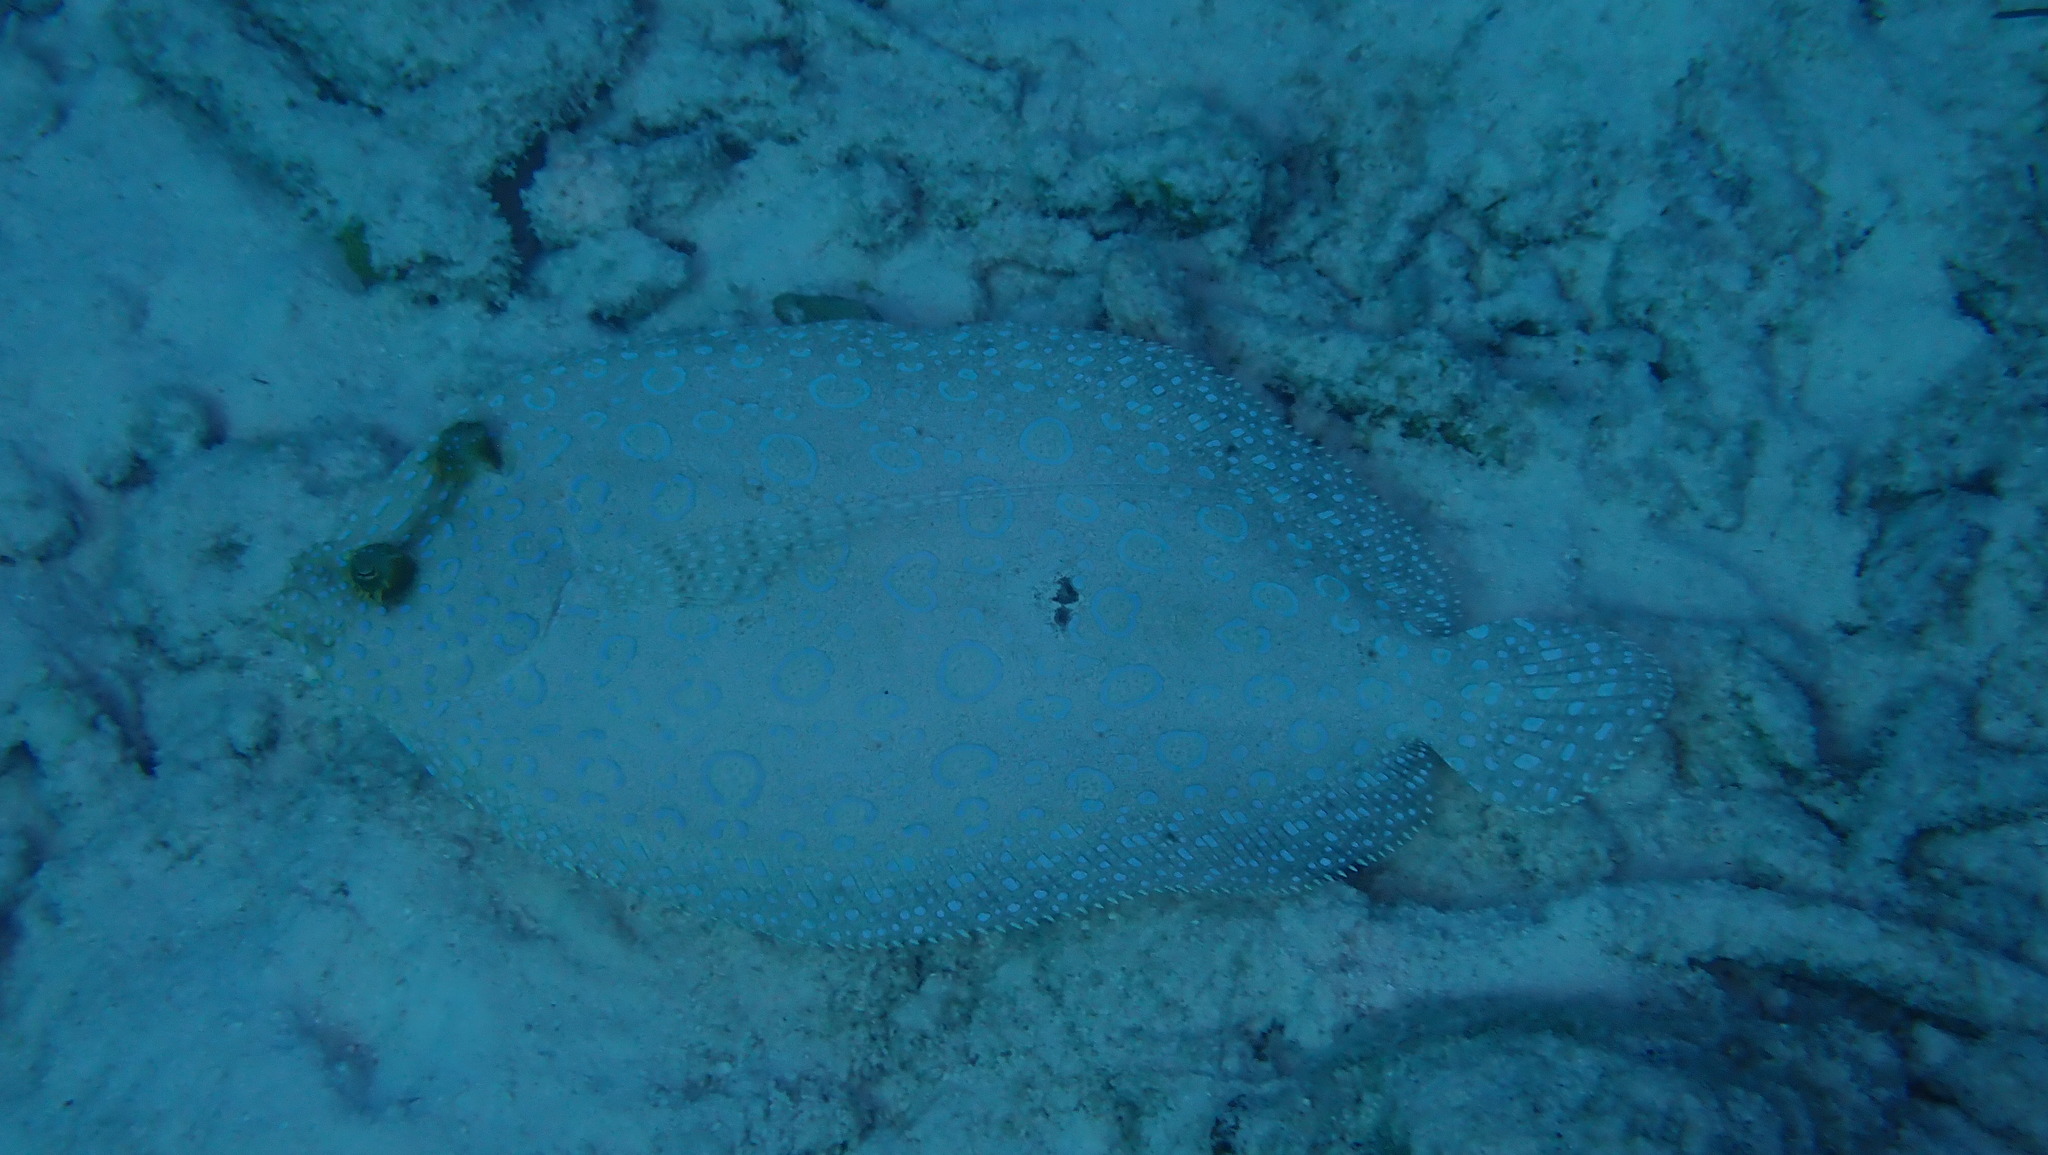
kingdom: Animalia
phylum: Chordata
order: Pleuronectiformes
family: Bothidae
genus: Bothus
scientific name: Bothus lunatus
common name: Peacock flounder
